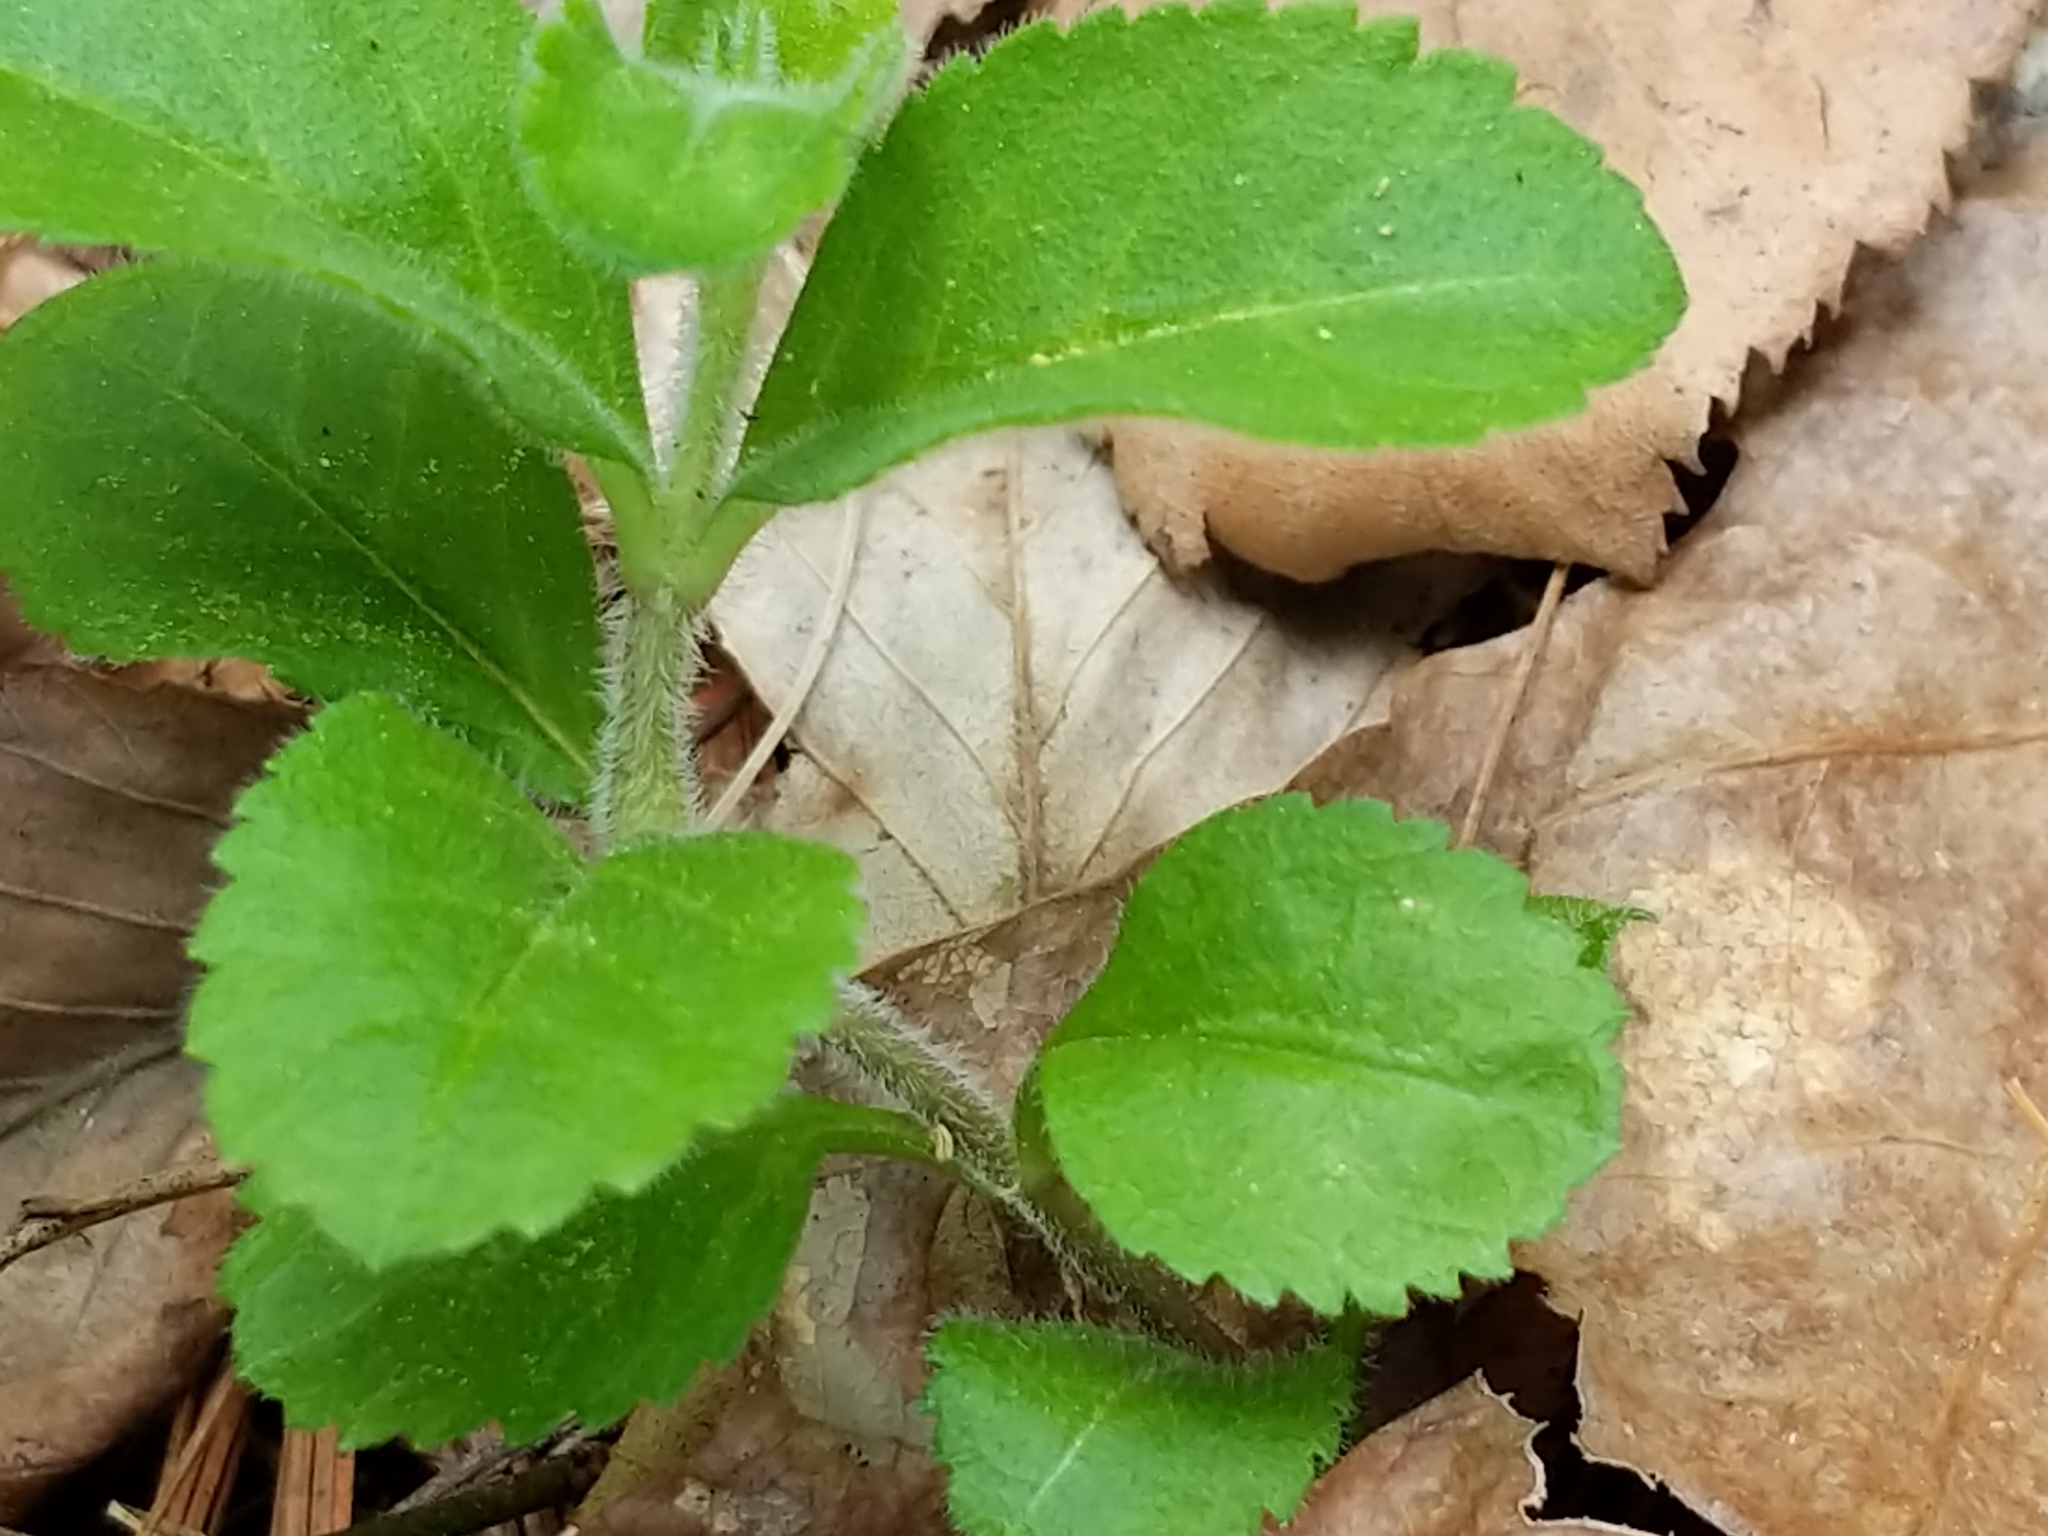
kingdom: Plantae
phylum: Tracheophyta
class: Magnoliopsida
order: Lamiales
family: Plantaginaceae
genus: Veronica
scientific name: Veronica officinalis
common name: Common speedwell
